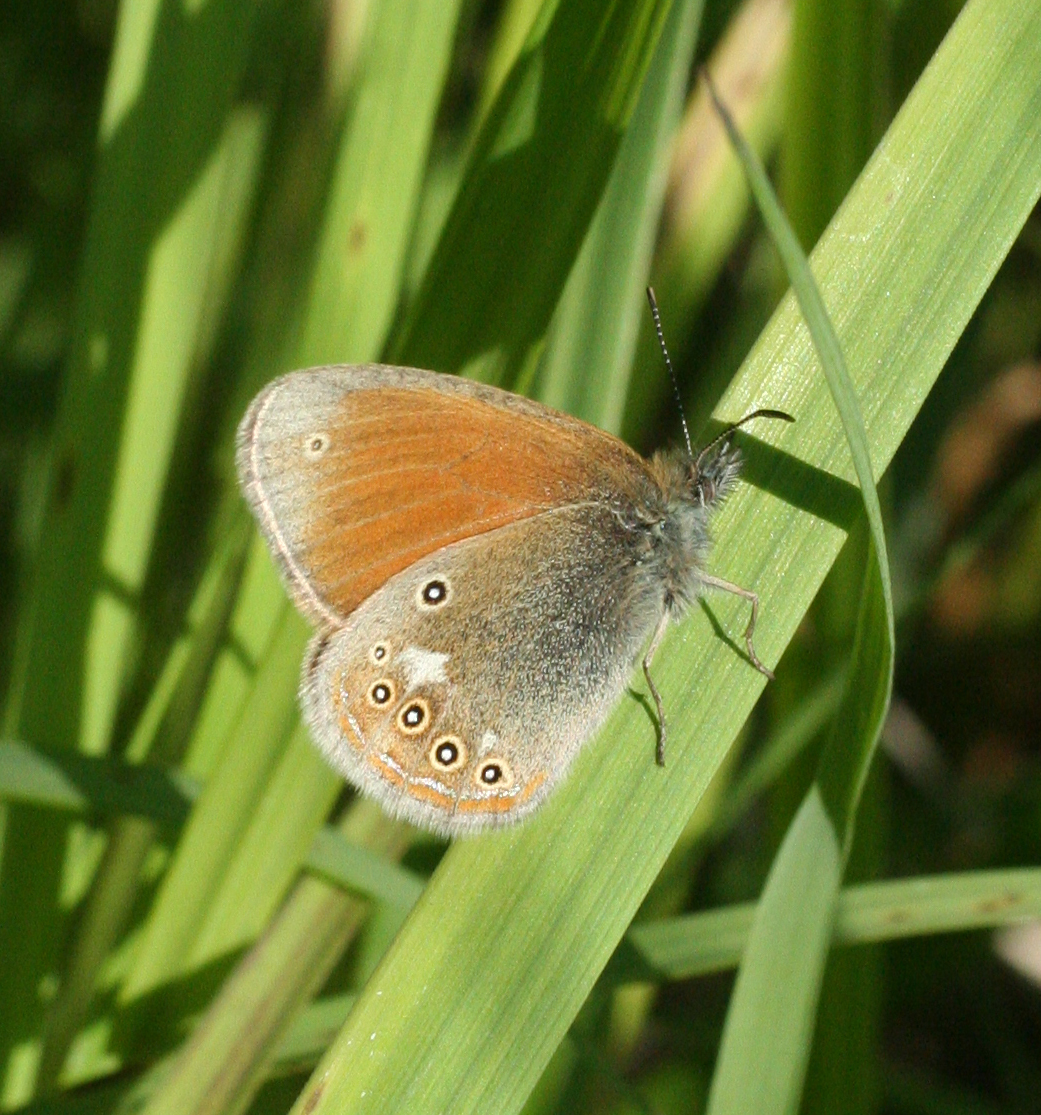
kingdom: Animalia
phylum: Arthropoda
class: Insecta
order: Lepidoptera
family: Nymphalidae
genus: Coenonympha
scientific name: Coenonympha iphis
